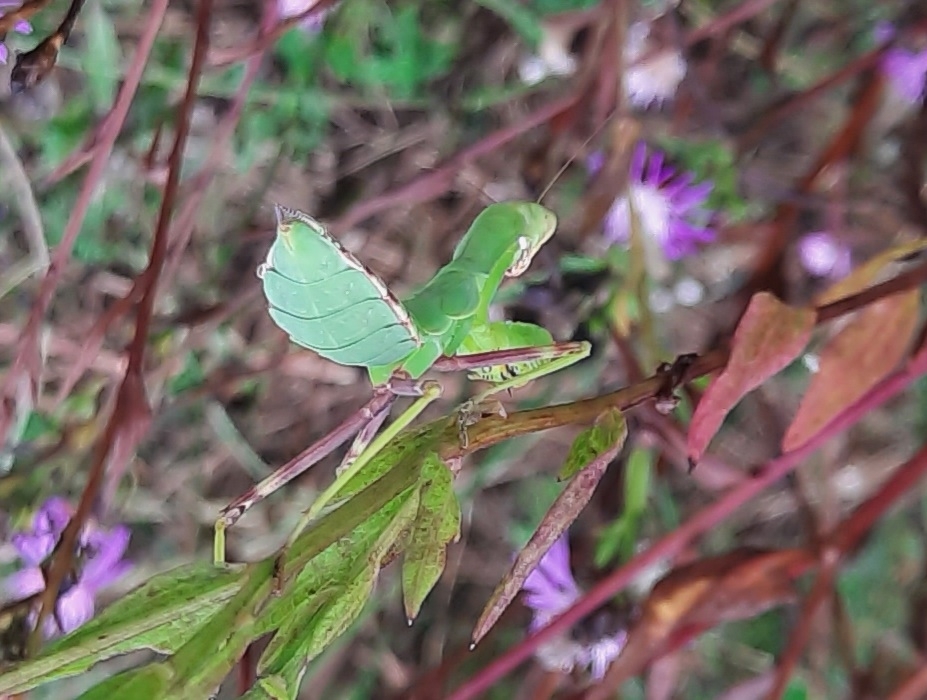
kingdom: Animalia
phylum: Arthropoda
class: Insecta
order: Mantodea
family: Mantidae
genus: Hierodula
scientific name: Hierodula transcaucasica
